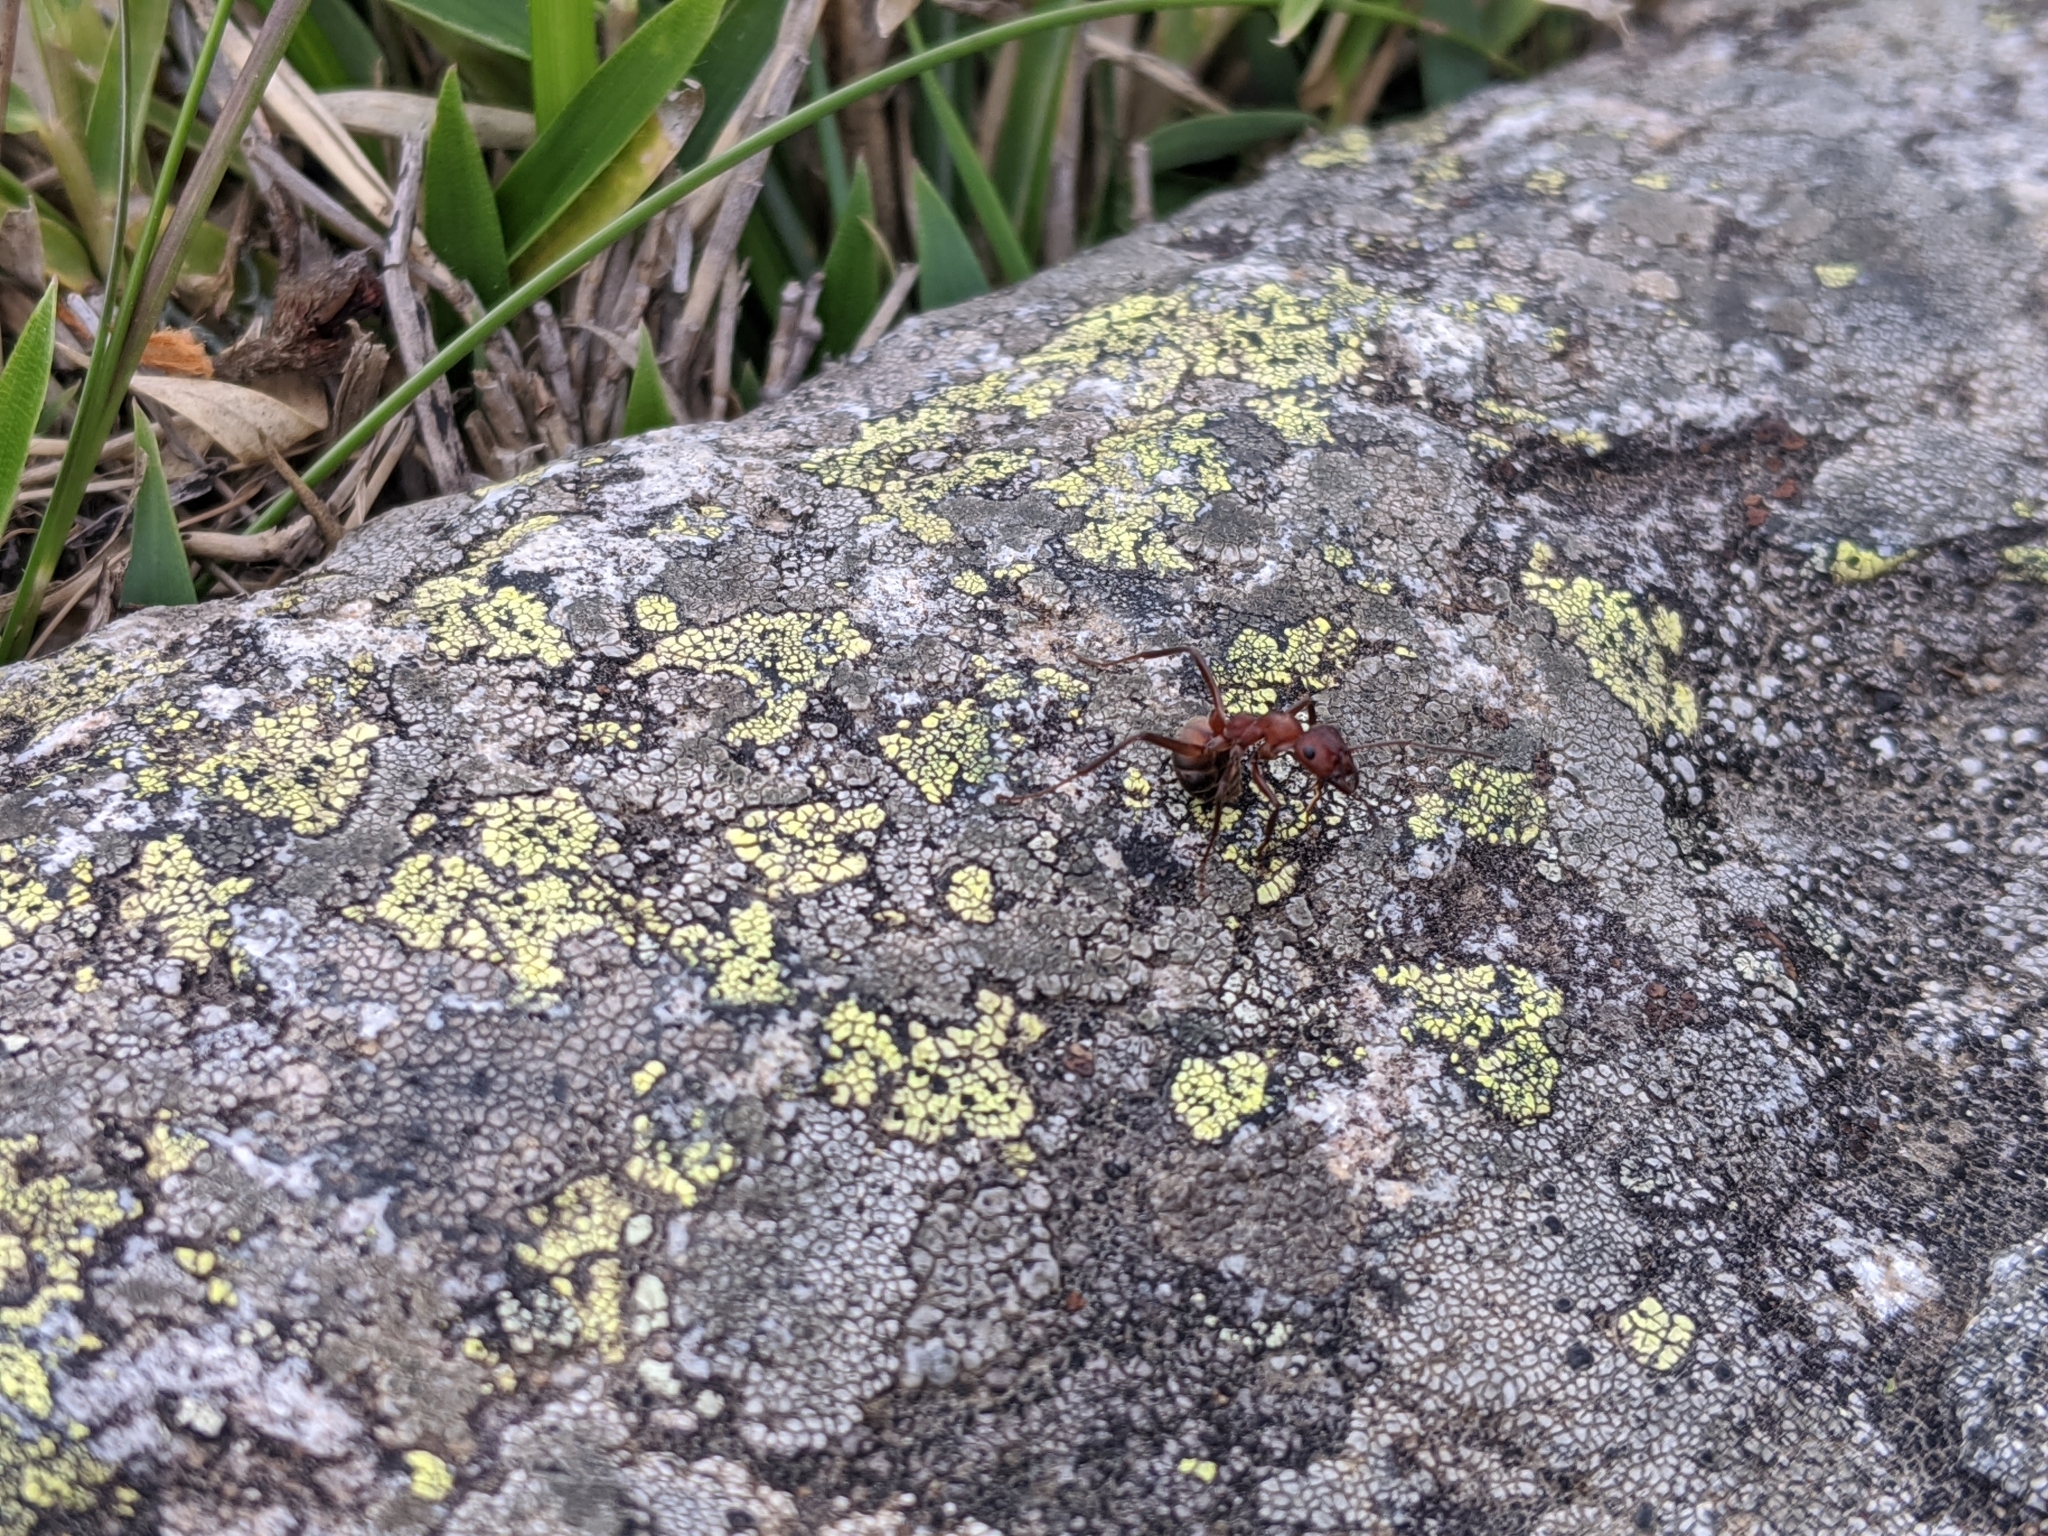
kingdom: Animalia
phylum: Arthropoda
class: Insecta
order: Hymenoptera
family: Formicidae
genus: Formica
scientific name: Formica truncorum
